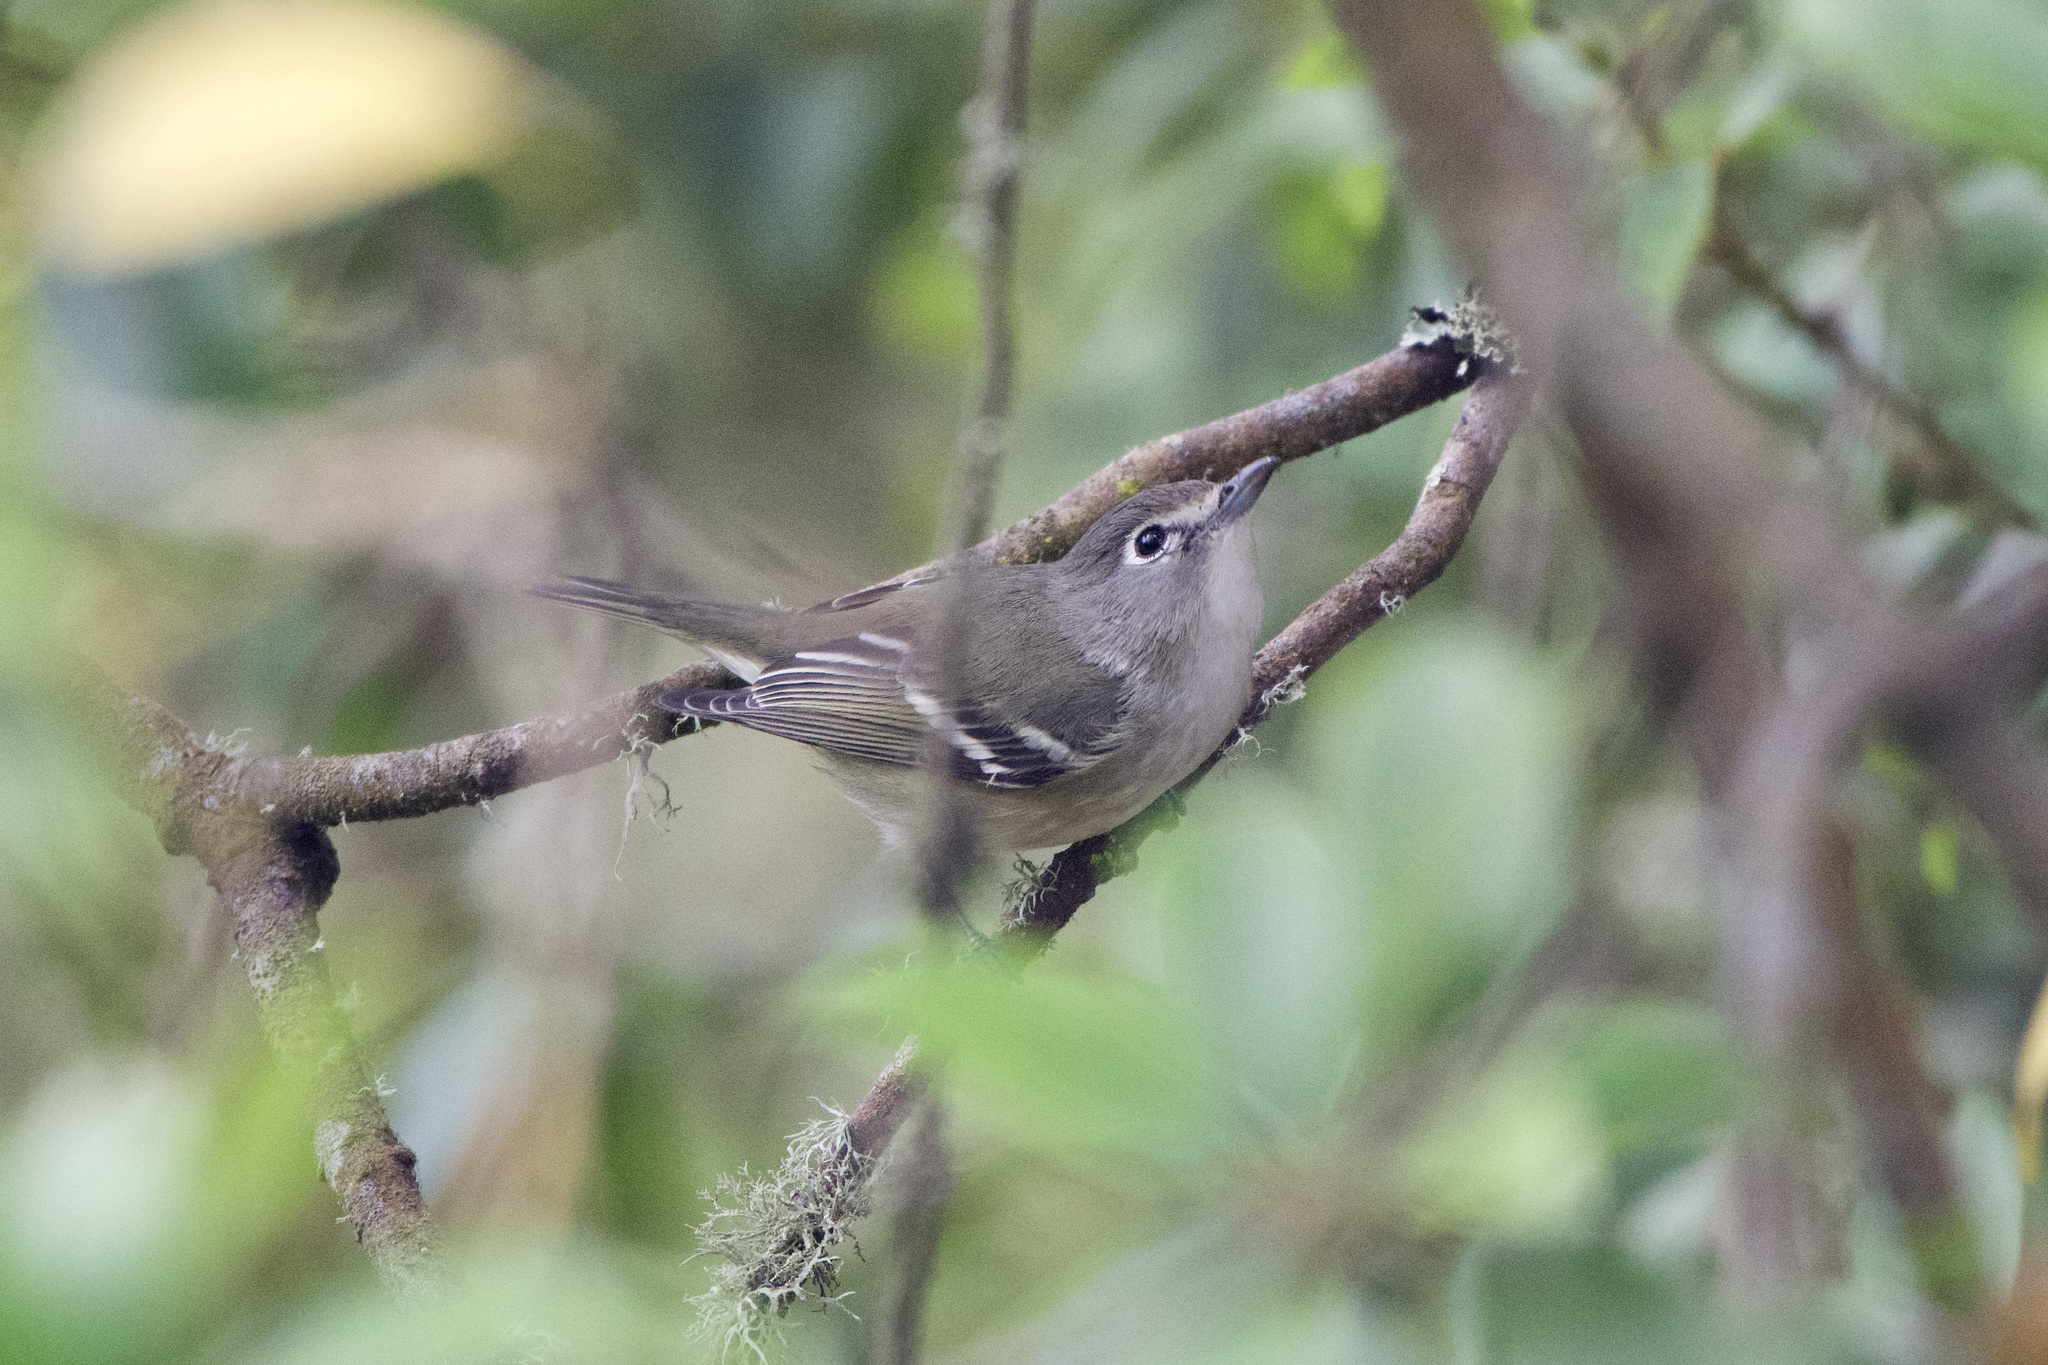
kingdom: Animalia
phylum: Chordata
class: Aves
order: Passeriformes
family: Vireonidae
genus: Vireo
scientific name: Vireo cassinii
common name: Cassin's vireo
